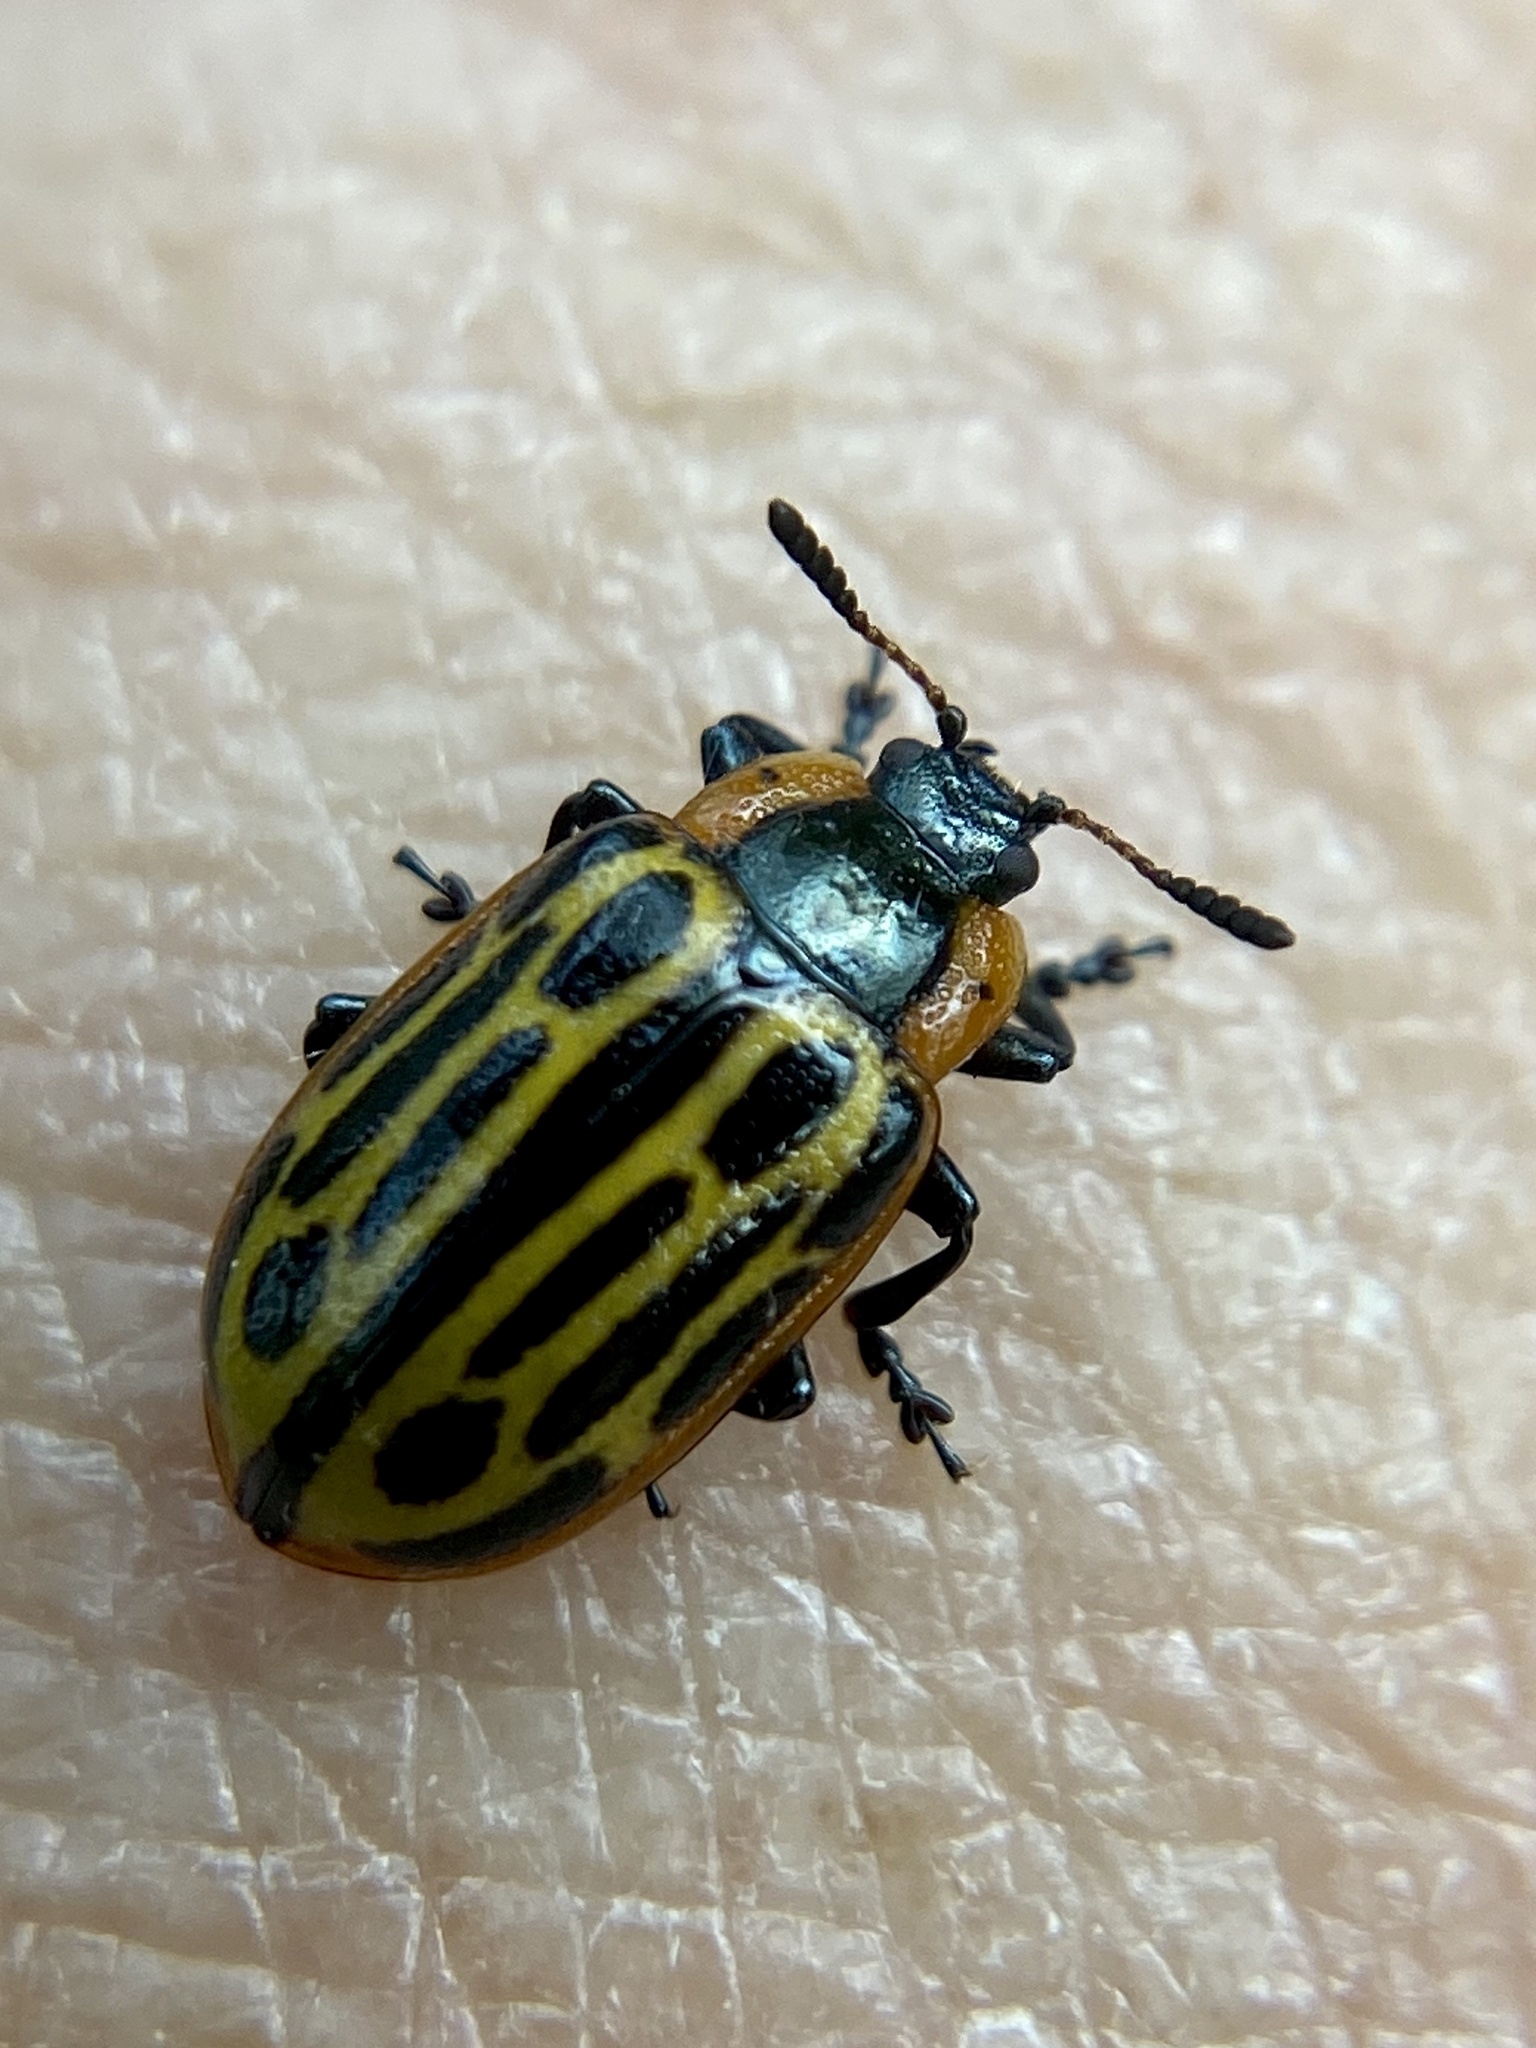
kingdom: Animalia
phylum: Arthropoda
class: Insecta
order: Coleoptera
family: Chrysomelidae
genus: Aethiopocassis
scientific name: Aethiopocassis scripta
